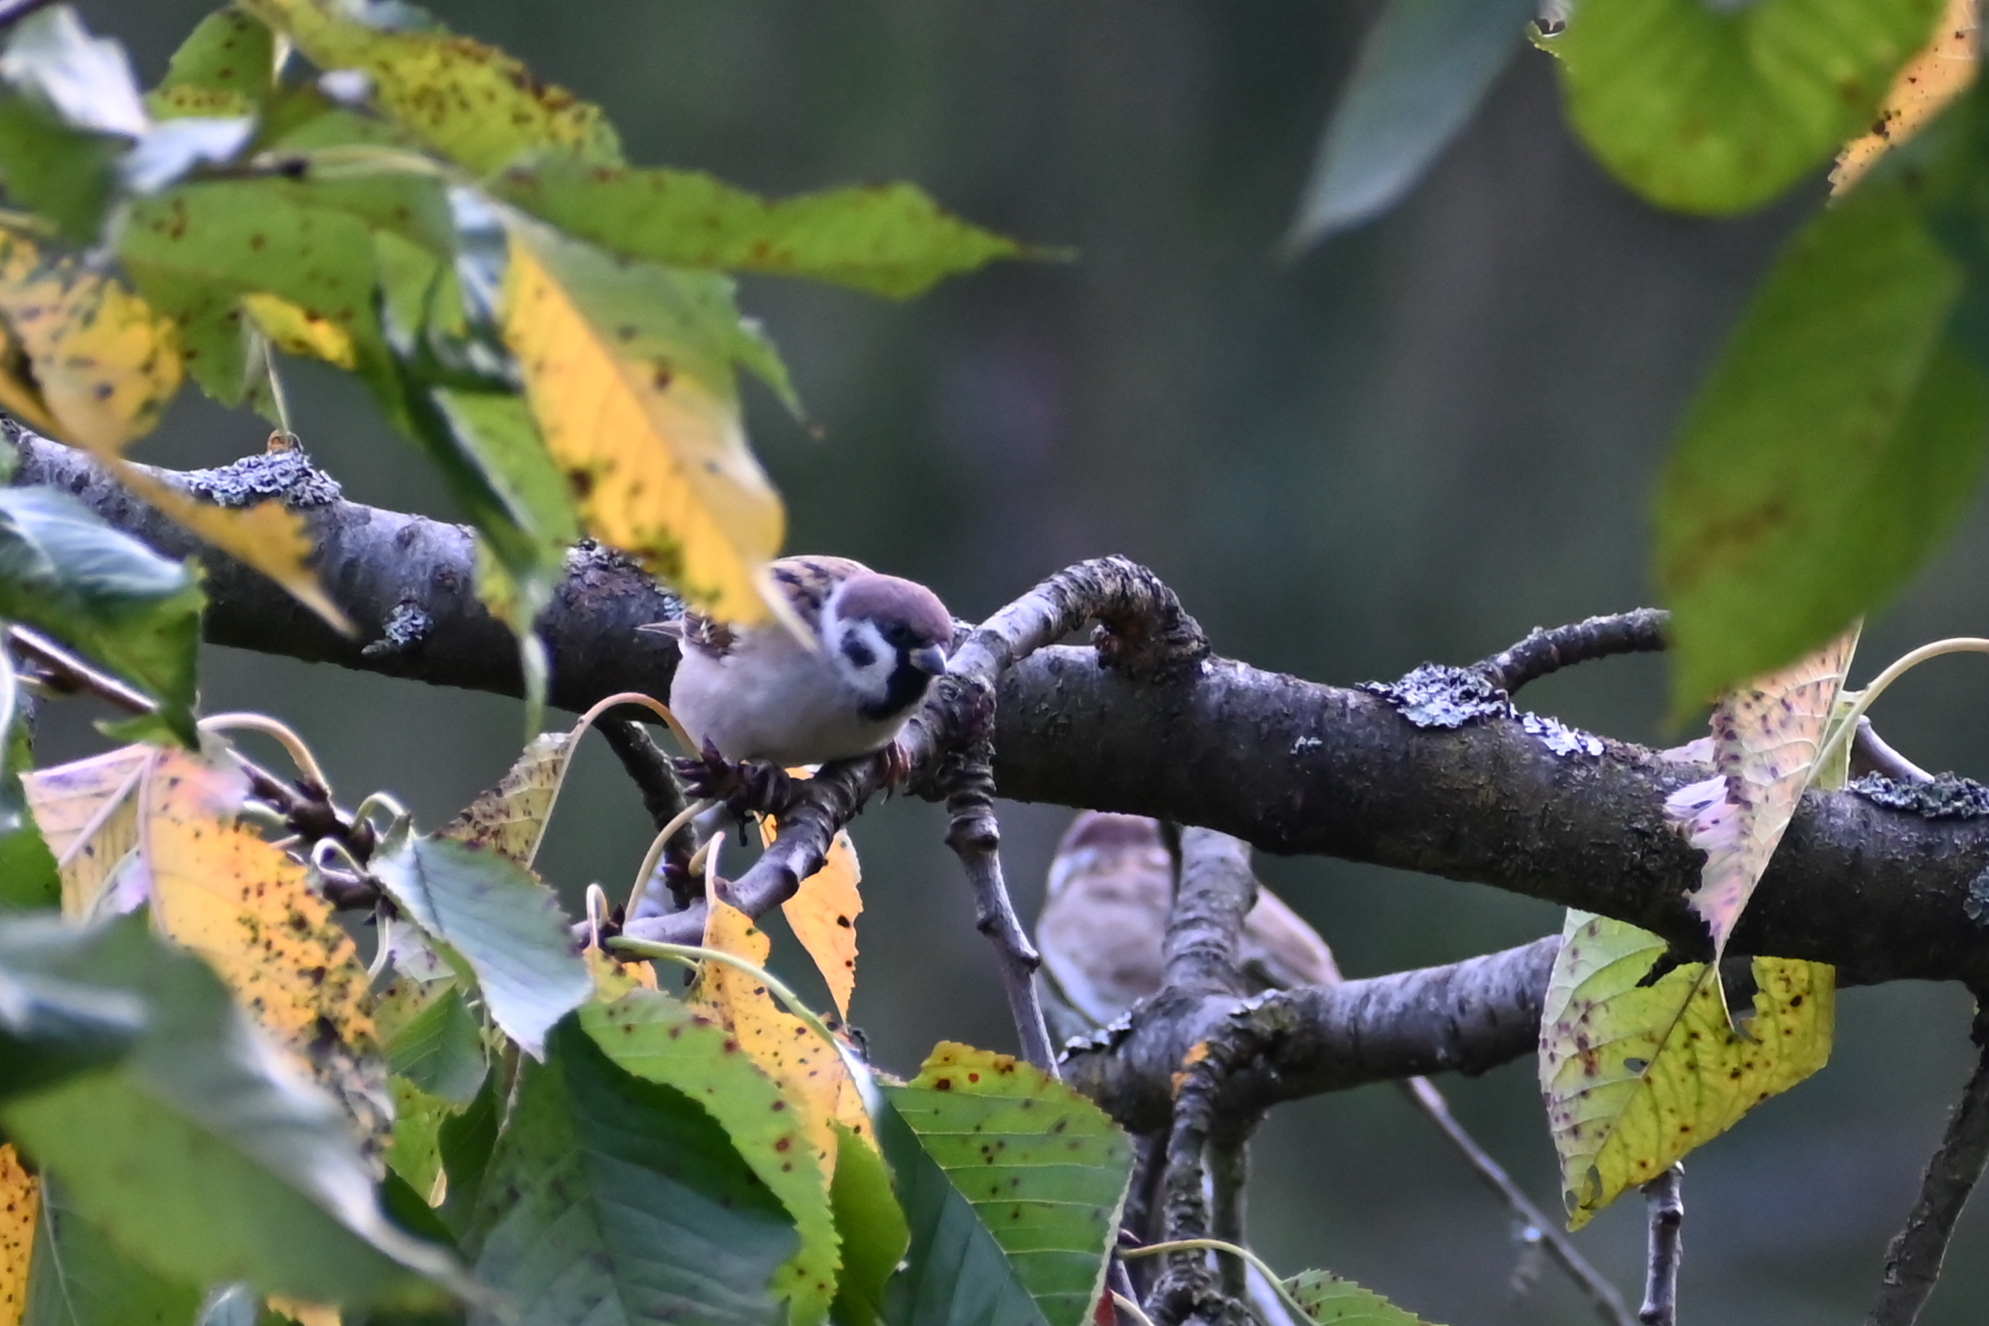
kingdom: Animalia
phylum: Chordata
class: Aves
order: Passeriformes
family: Passeridae
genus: Passer
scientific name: Passer montanus
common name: Eurasian tree sparrow
